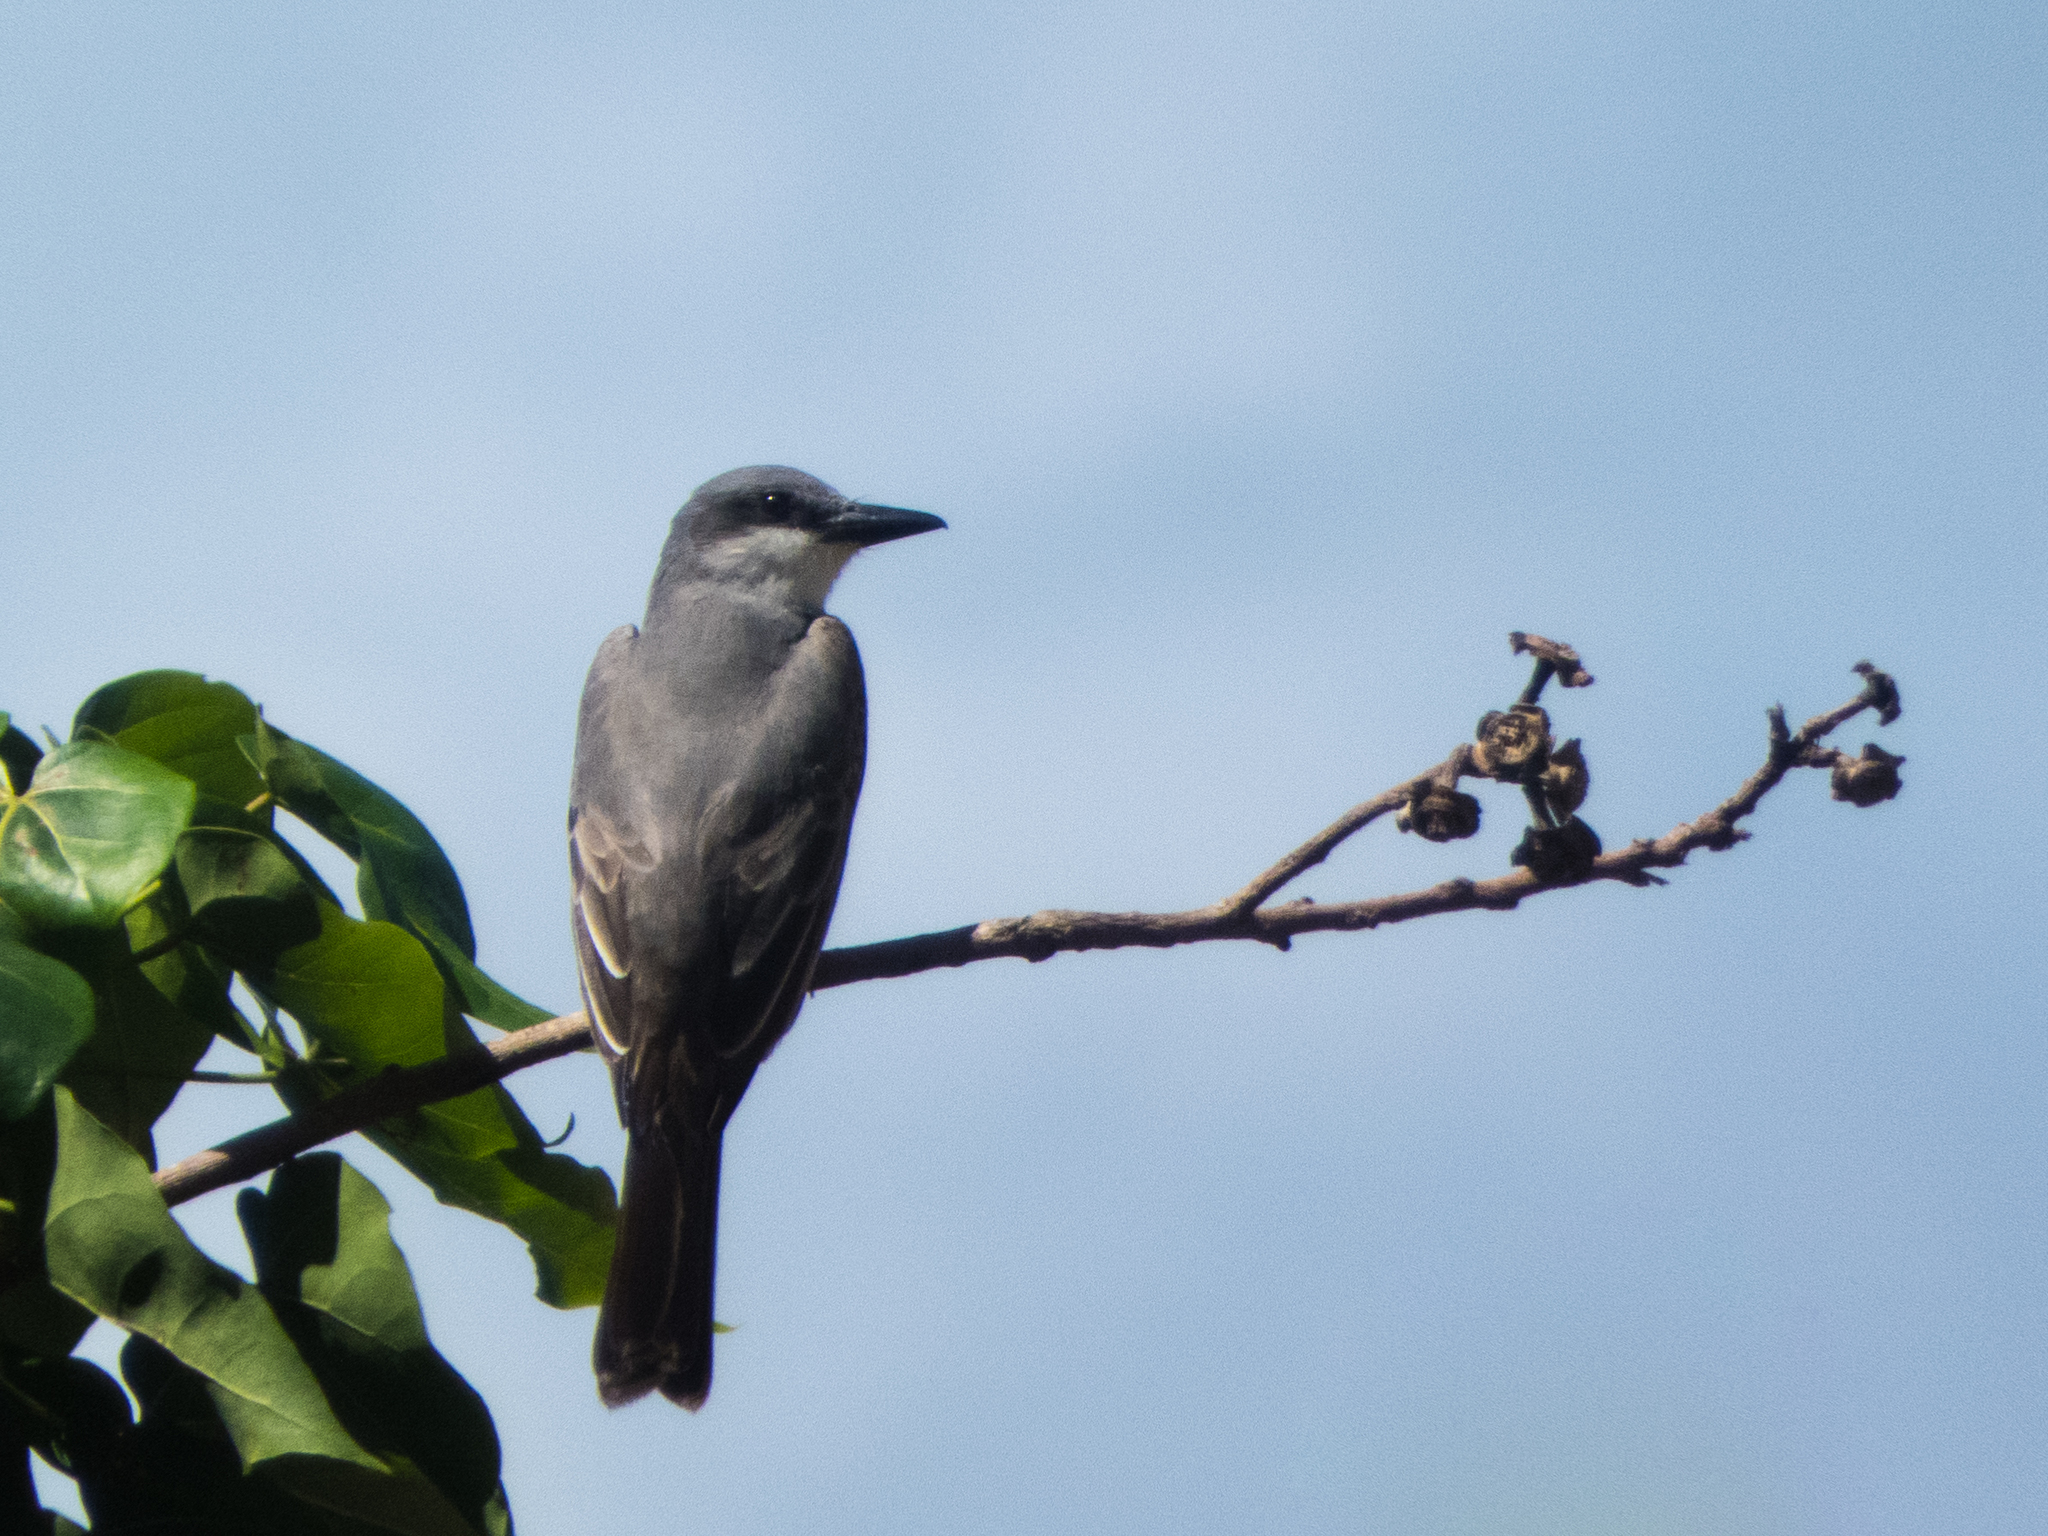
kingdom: Animalia
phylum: Chordata
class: Aves
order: Passeriformes
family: Tyrannidae
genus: Tyrannus
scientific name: Tyrannus dominicensis
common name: Gray kingbird
